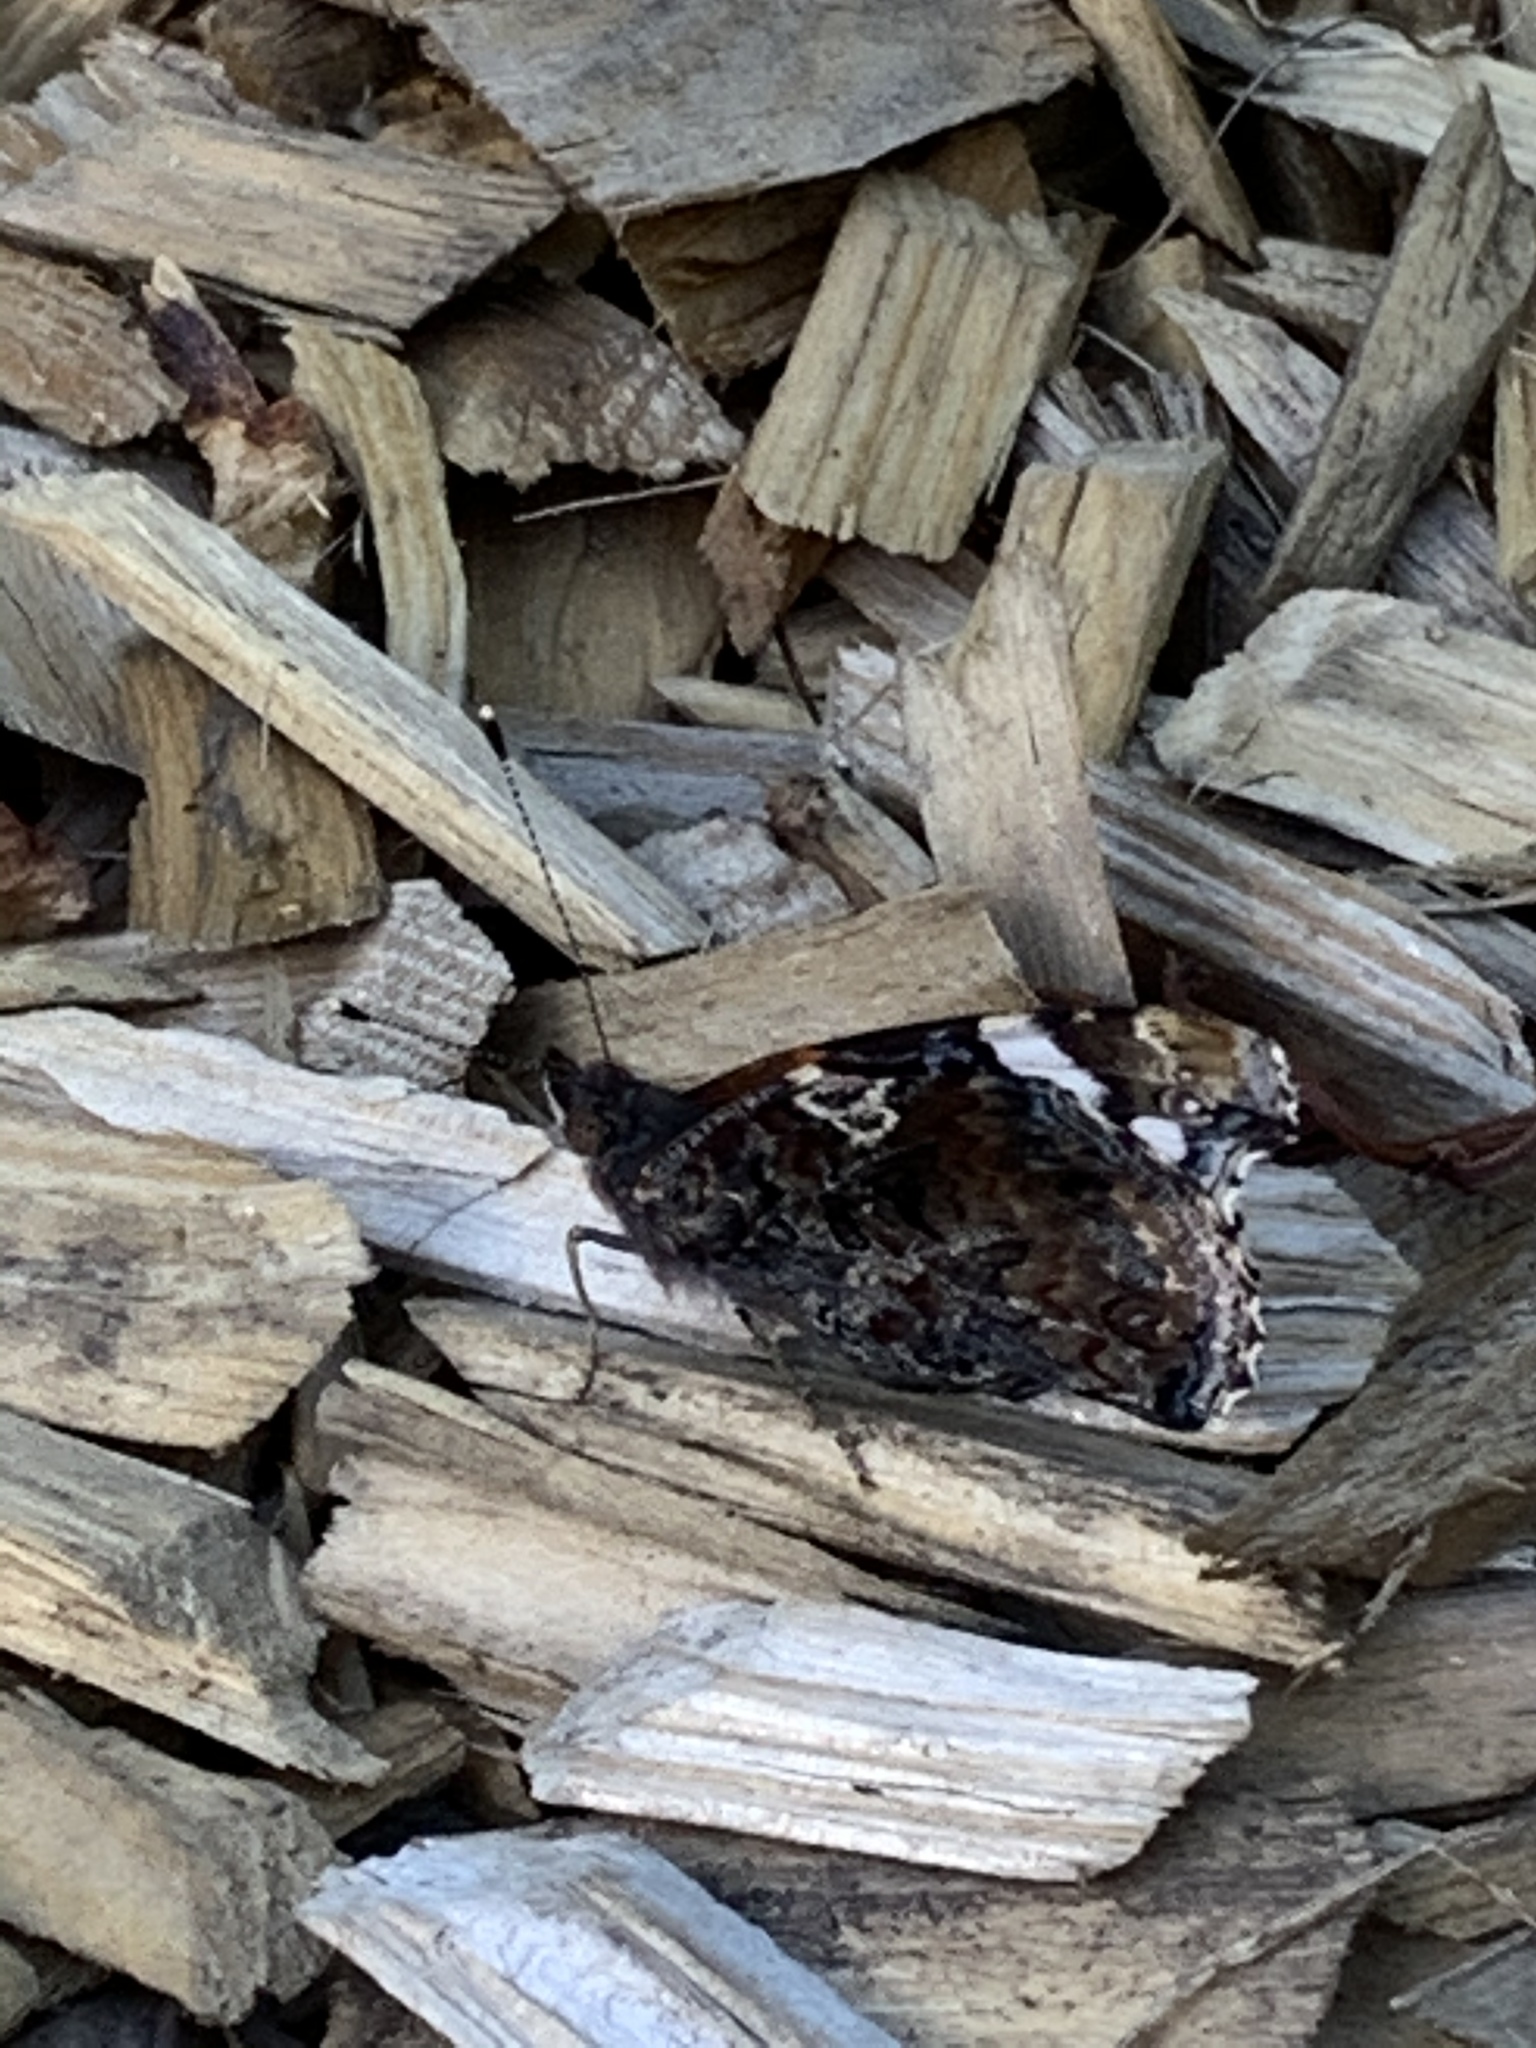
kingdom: Animalia
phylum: Arthropoda
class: Insecta
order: Lepidoptera
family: Nymphalidae
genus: Vanessa
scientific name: Vanessa atalanta
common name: Red admiral
